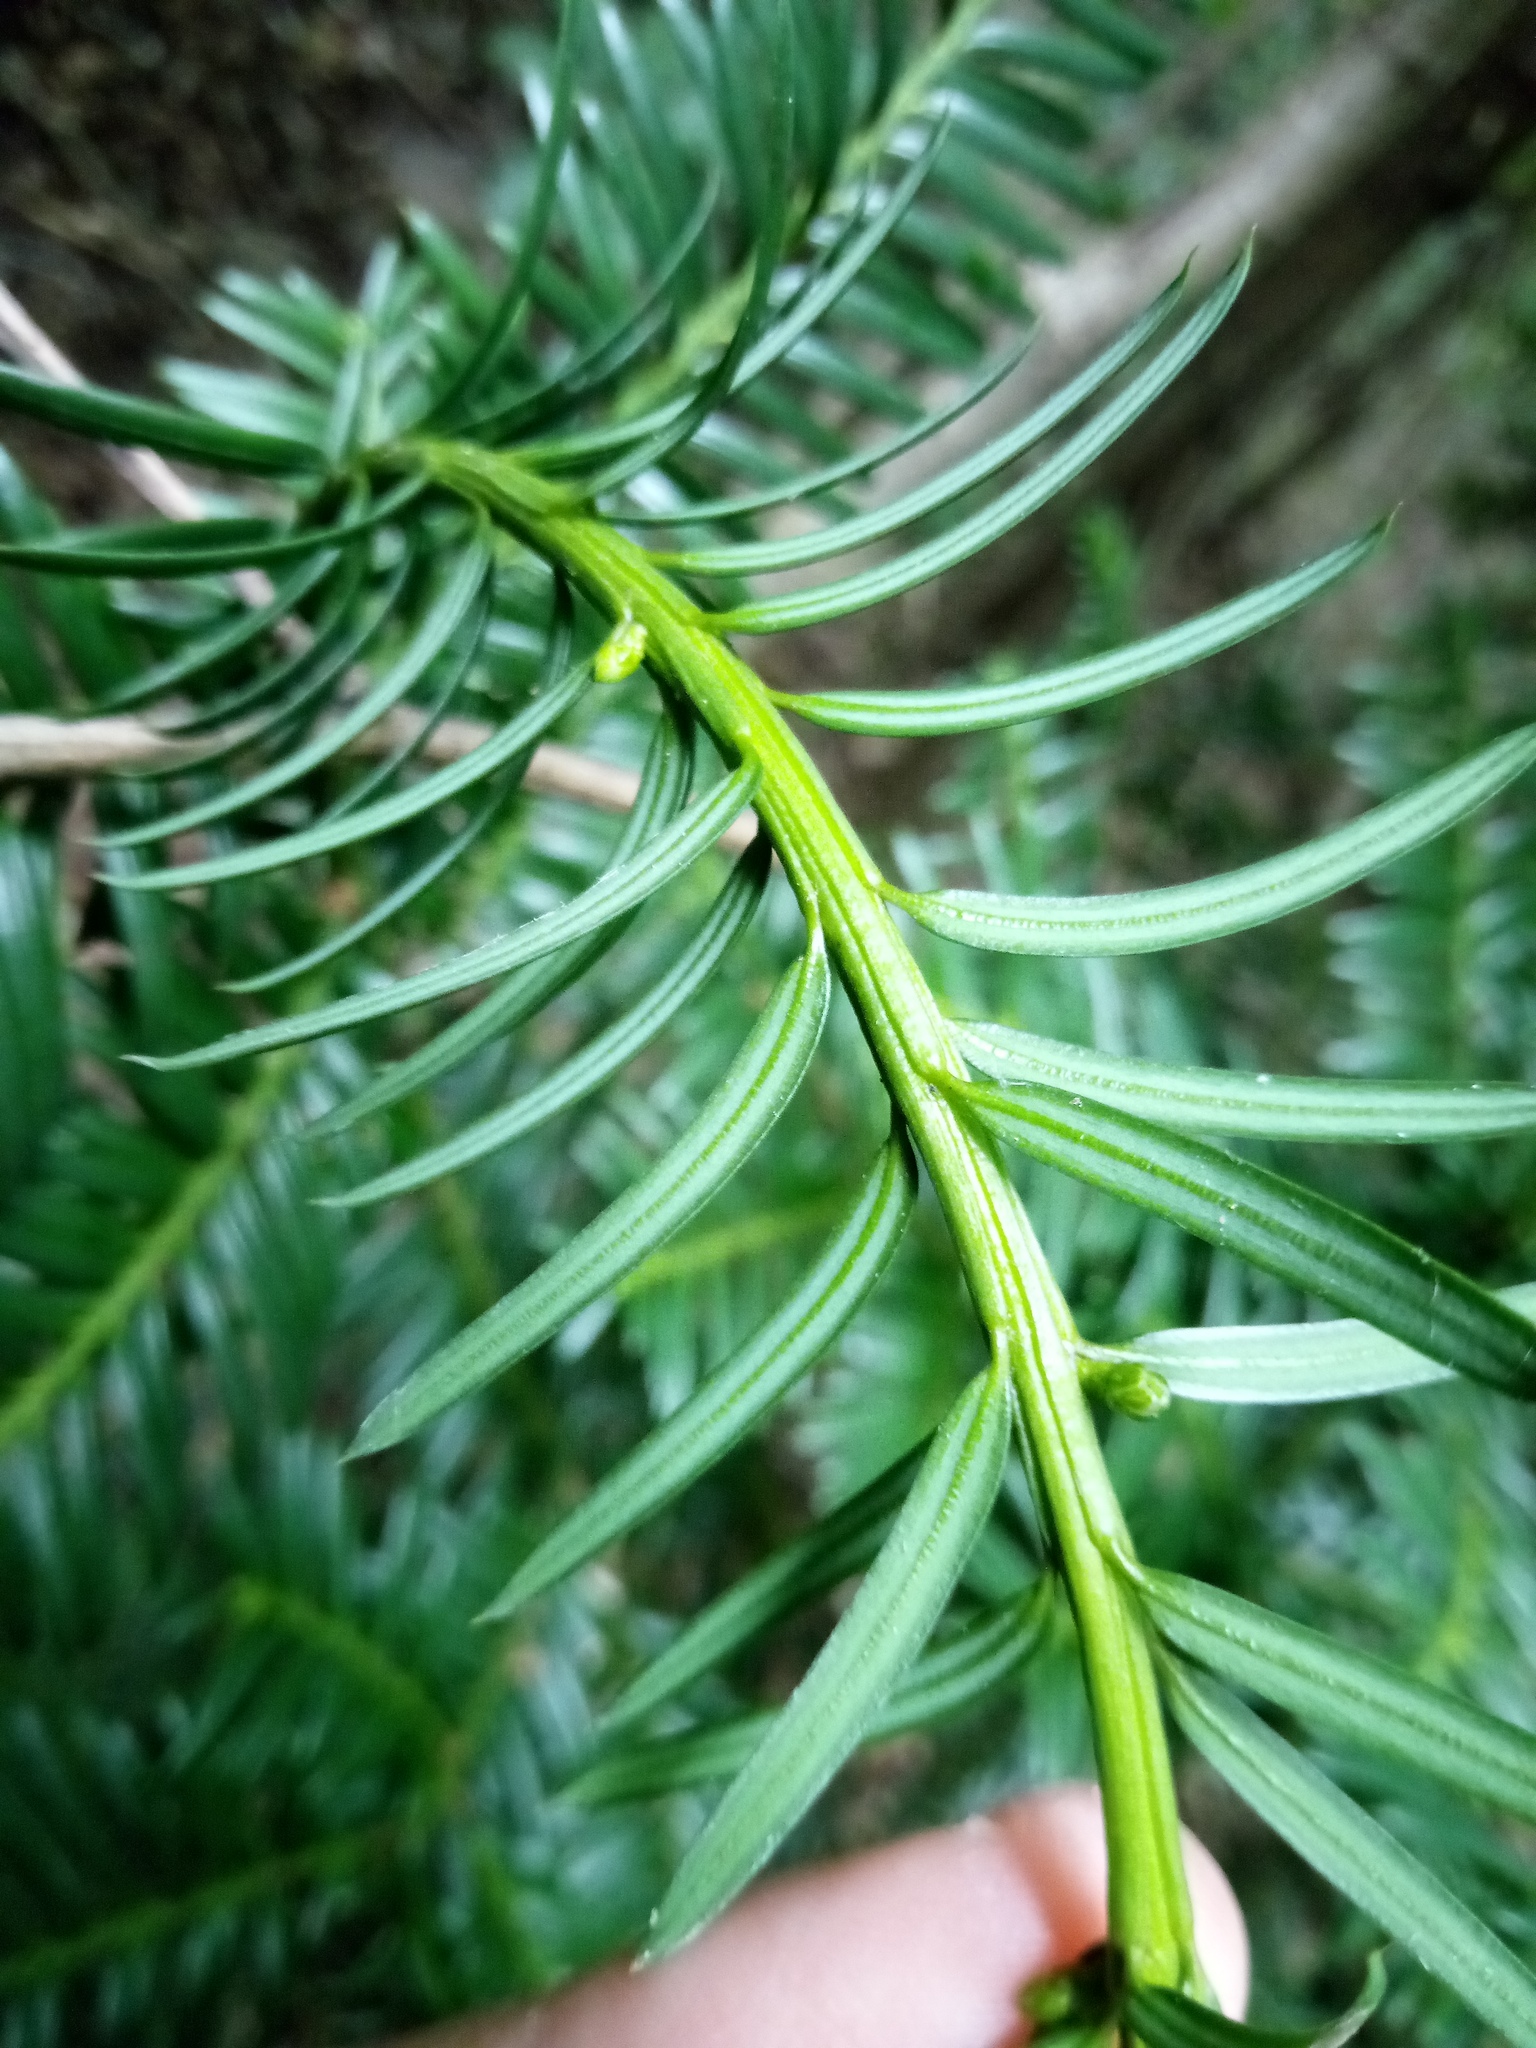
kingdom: Plantae
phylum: Tracheophyta
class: Pinopsida
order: Pinales
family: Taxaceae
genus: Taxus
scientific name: Taxus baccata
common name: Yew
